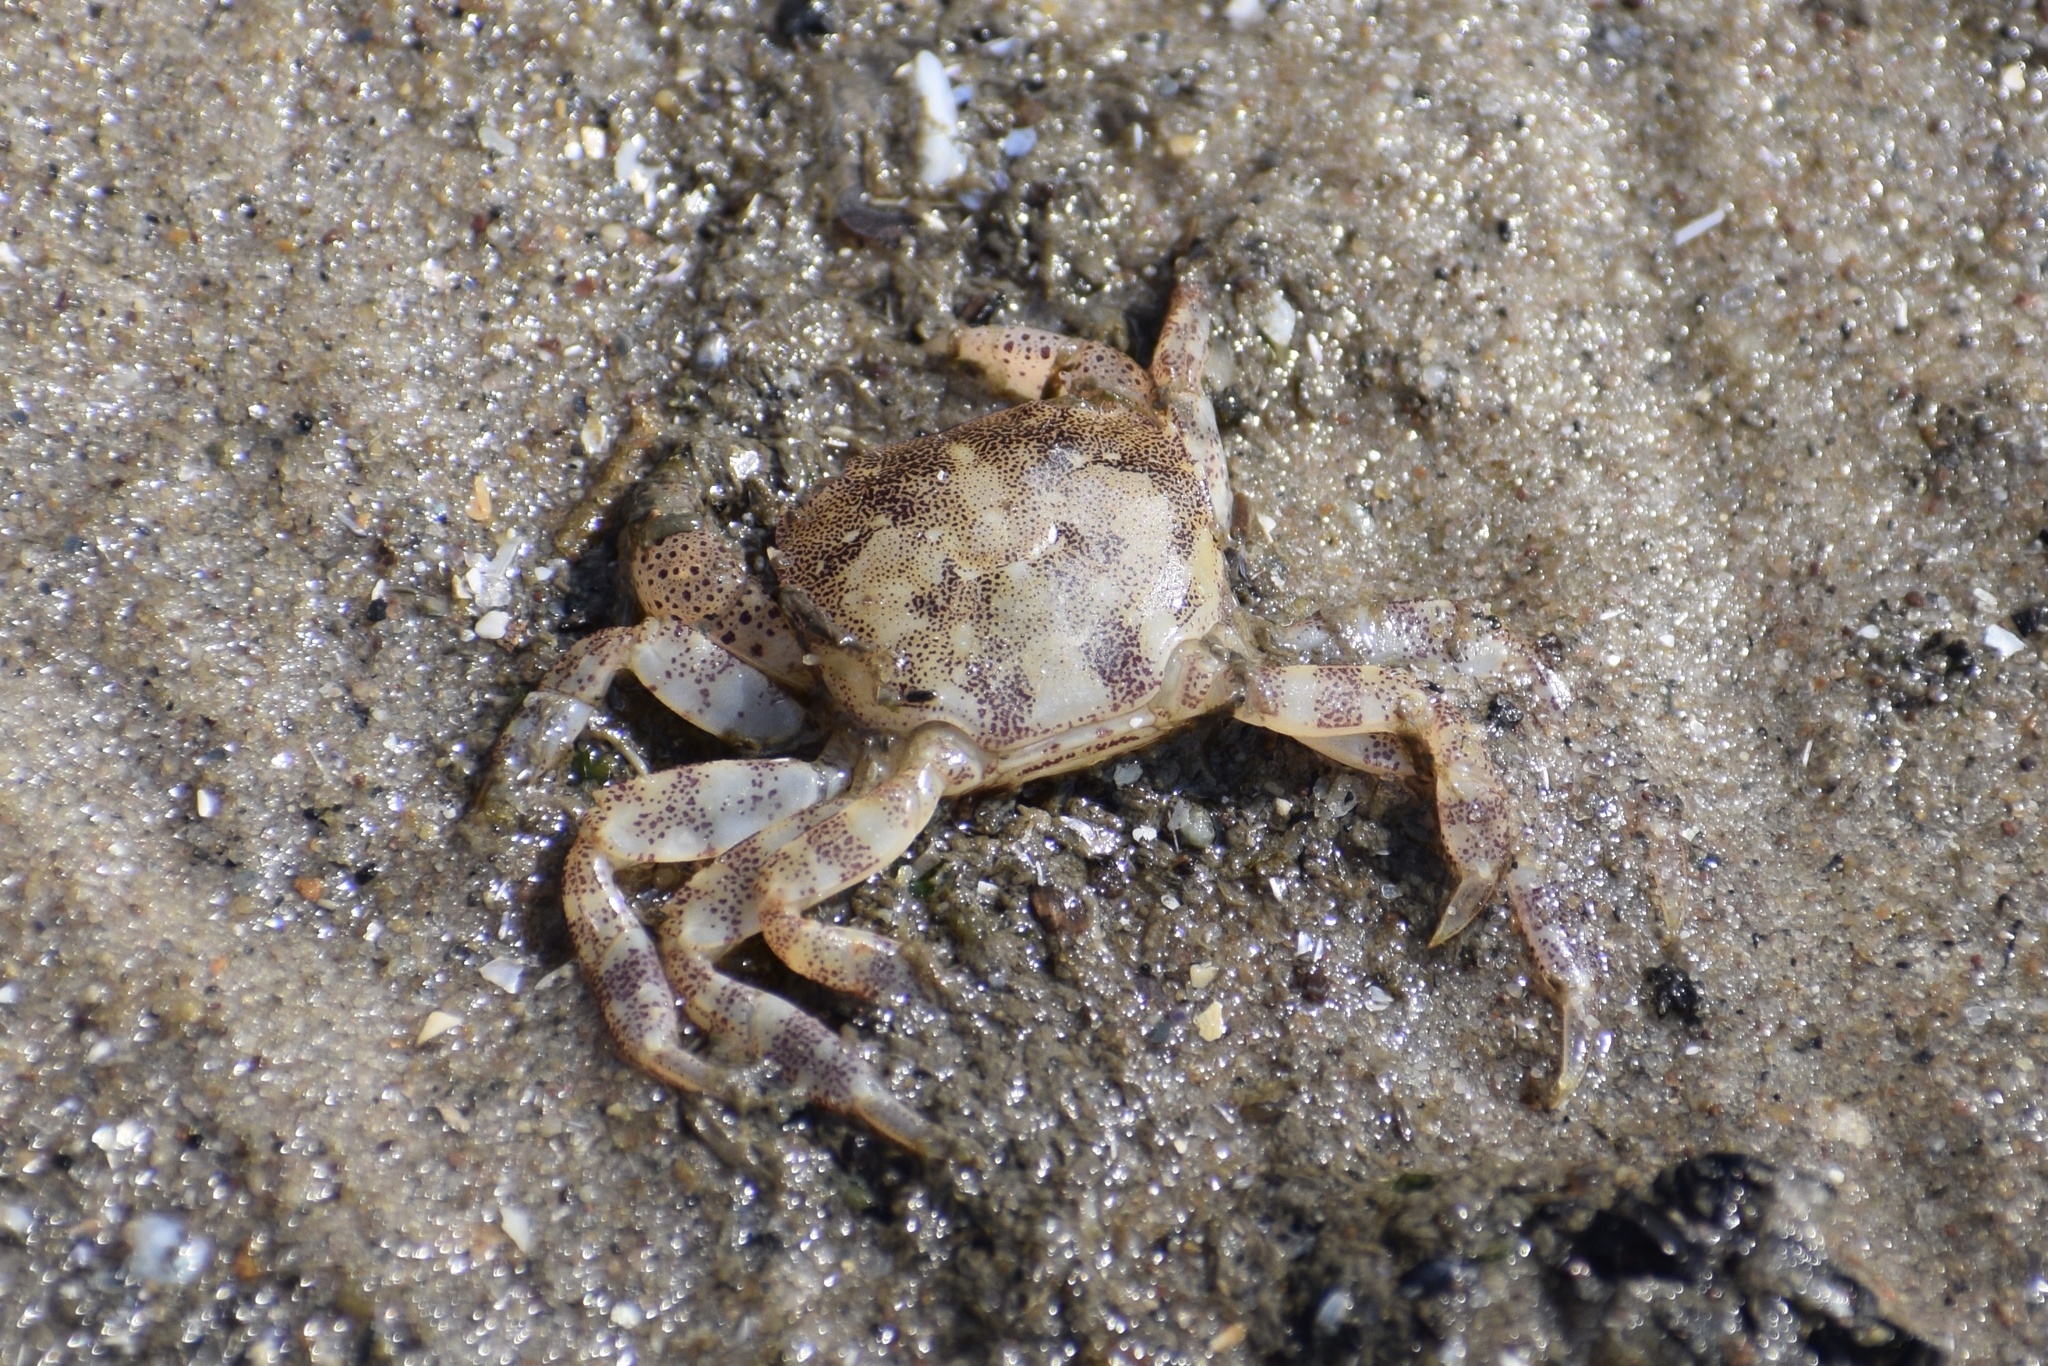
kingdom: Animalia
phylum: Arthropoda
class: Malacostraca
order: Decapoda
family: Varunidae
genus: Hemigrapsus
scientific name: Hemigrapsus sanguineus
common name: Asian shore crab
